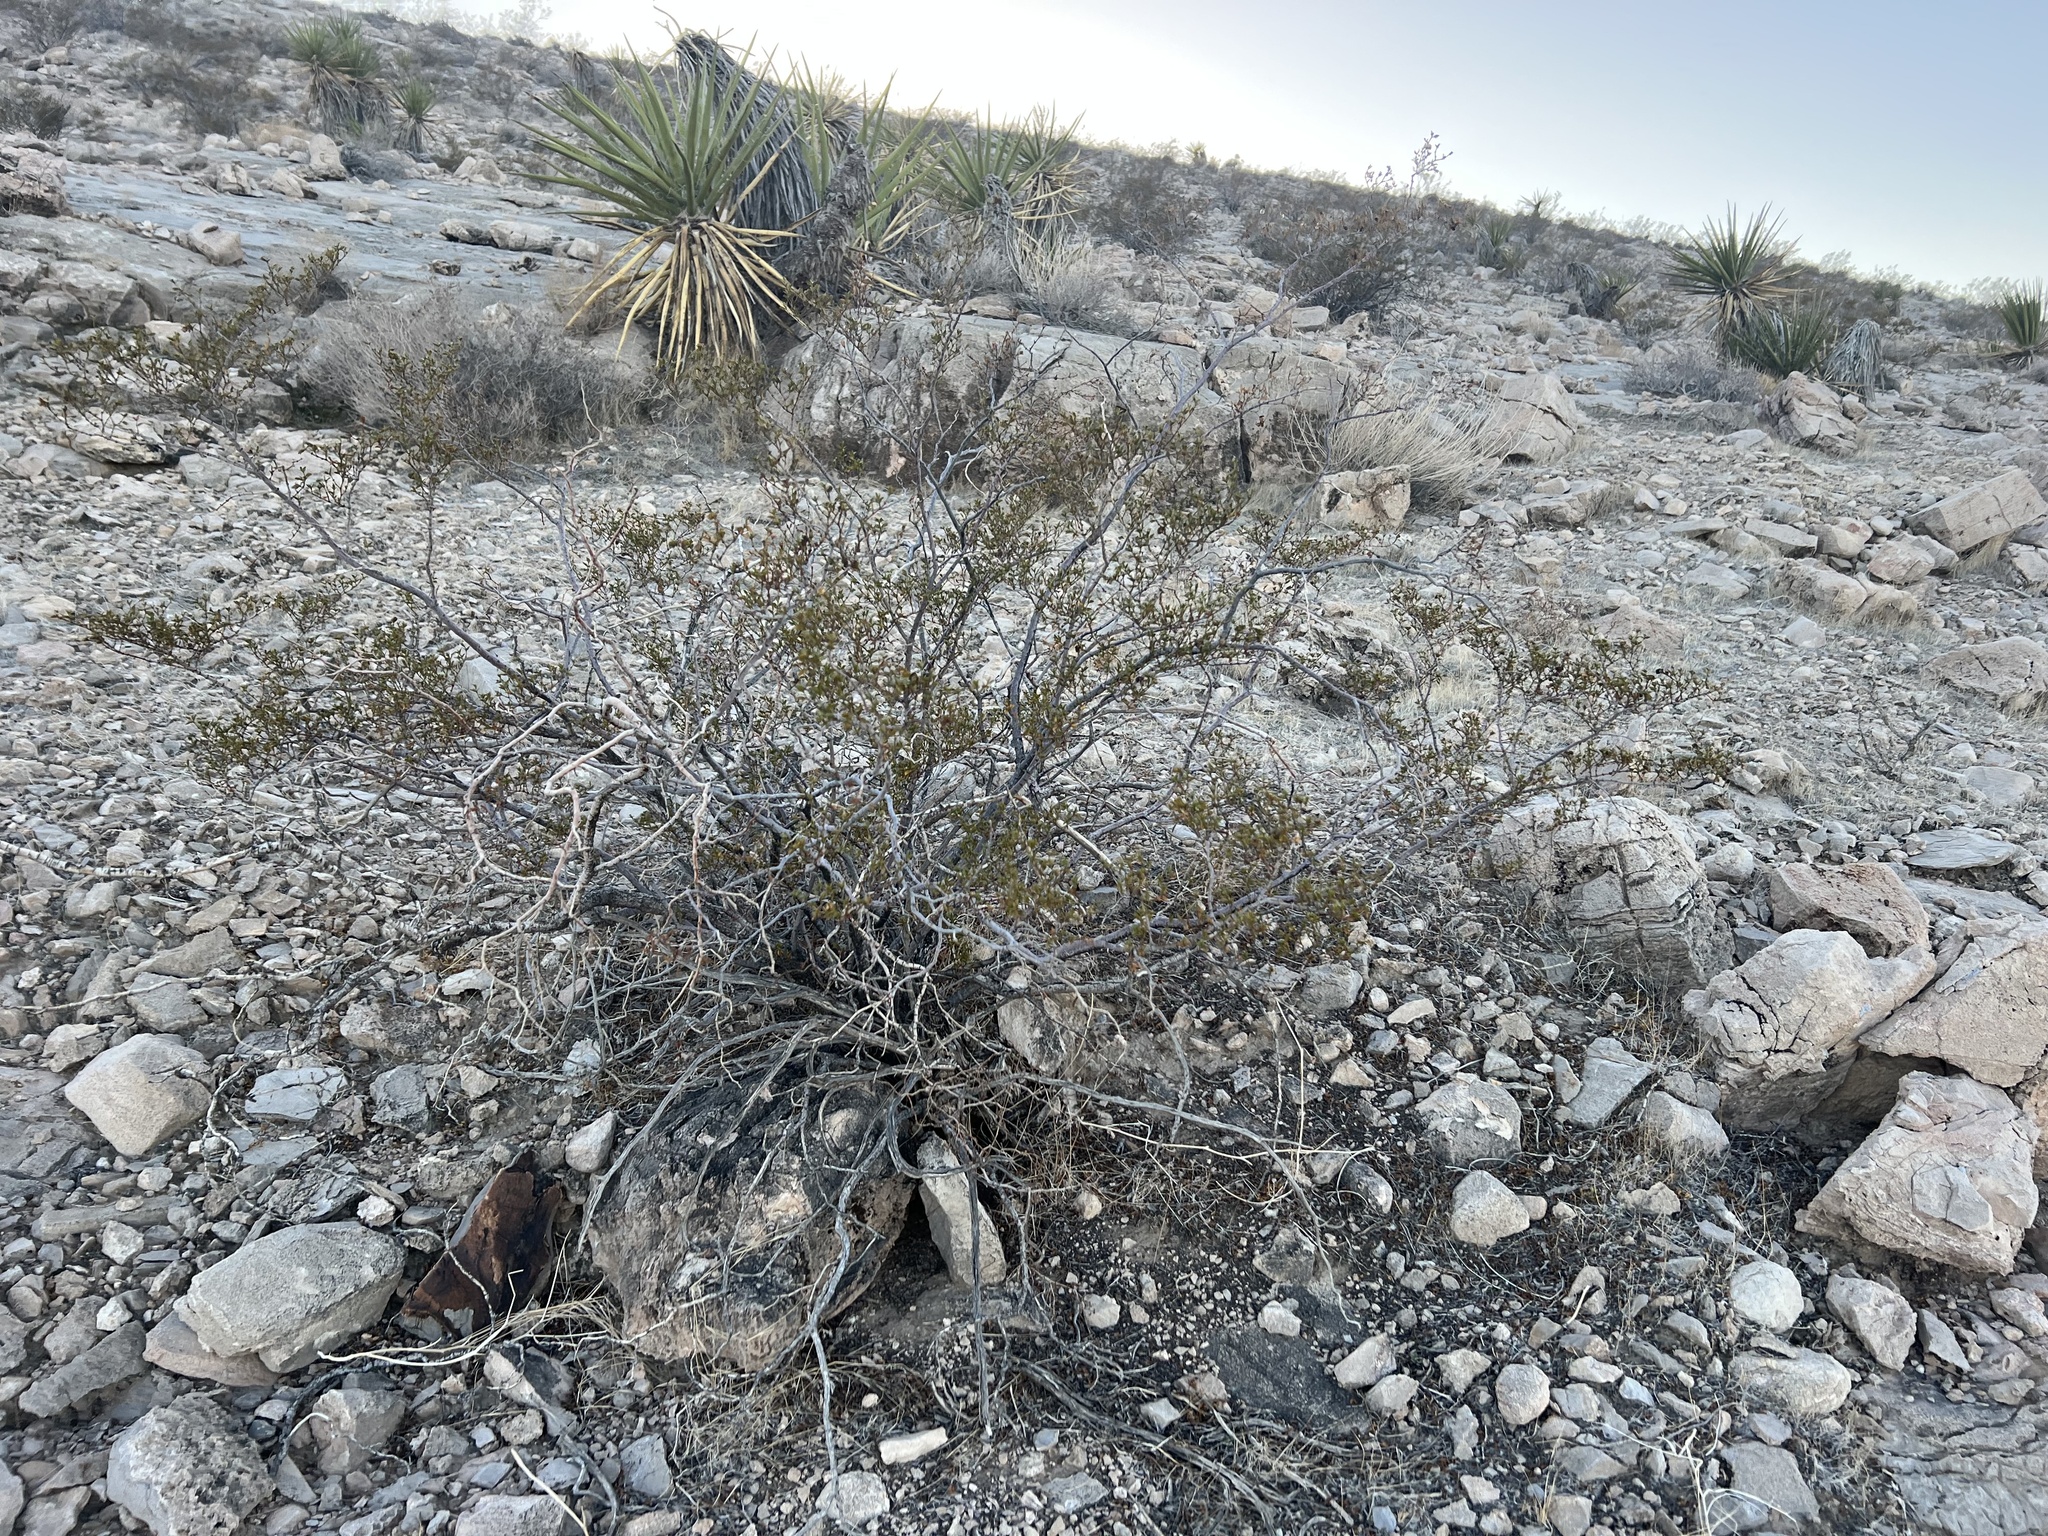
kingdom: Plantae
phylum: Tracheophyta
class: Magnoliopsida
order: Zygophyllales
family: Zygophyllaceae
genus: Larrea
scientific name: Larrea tridentata
